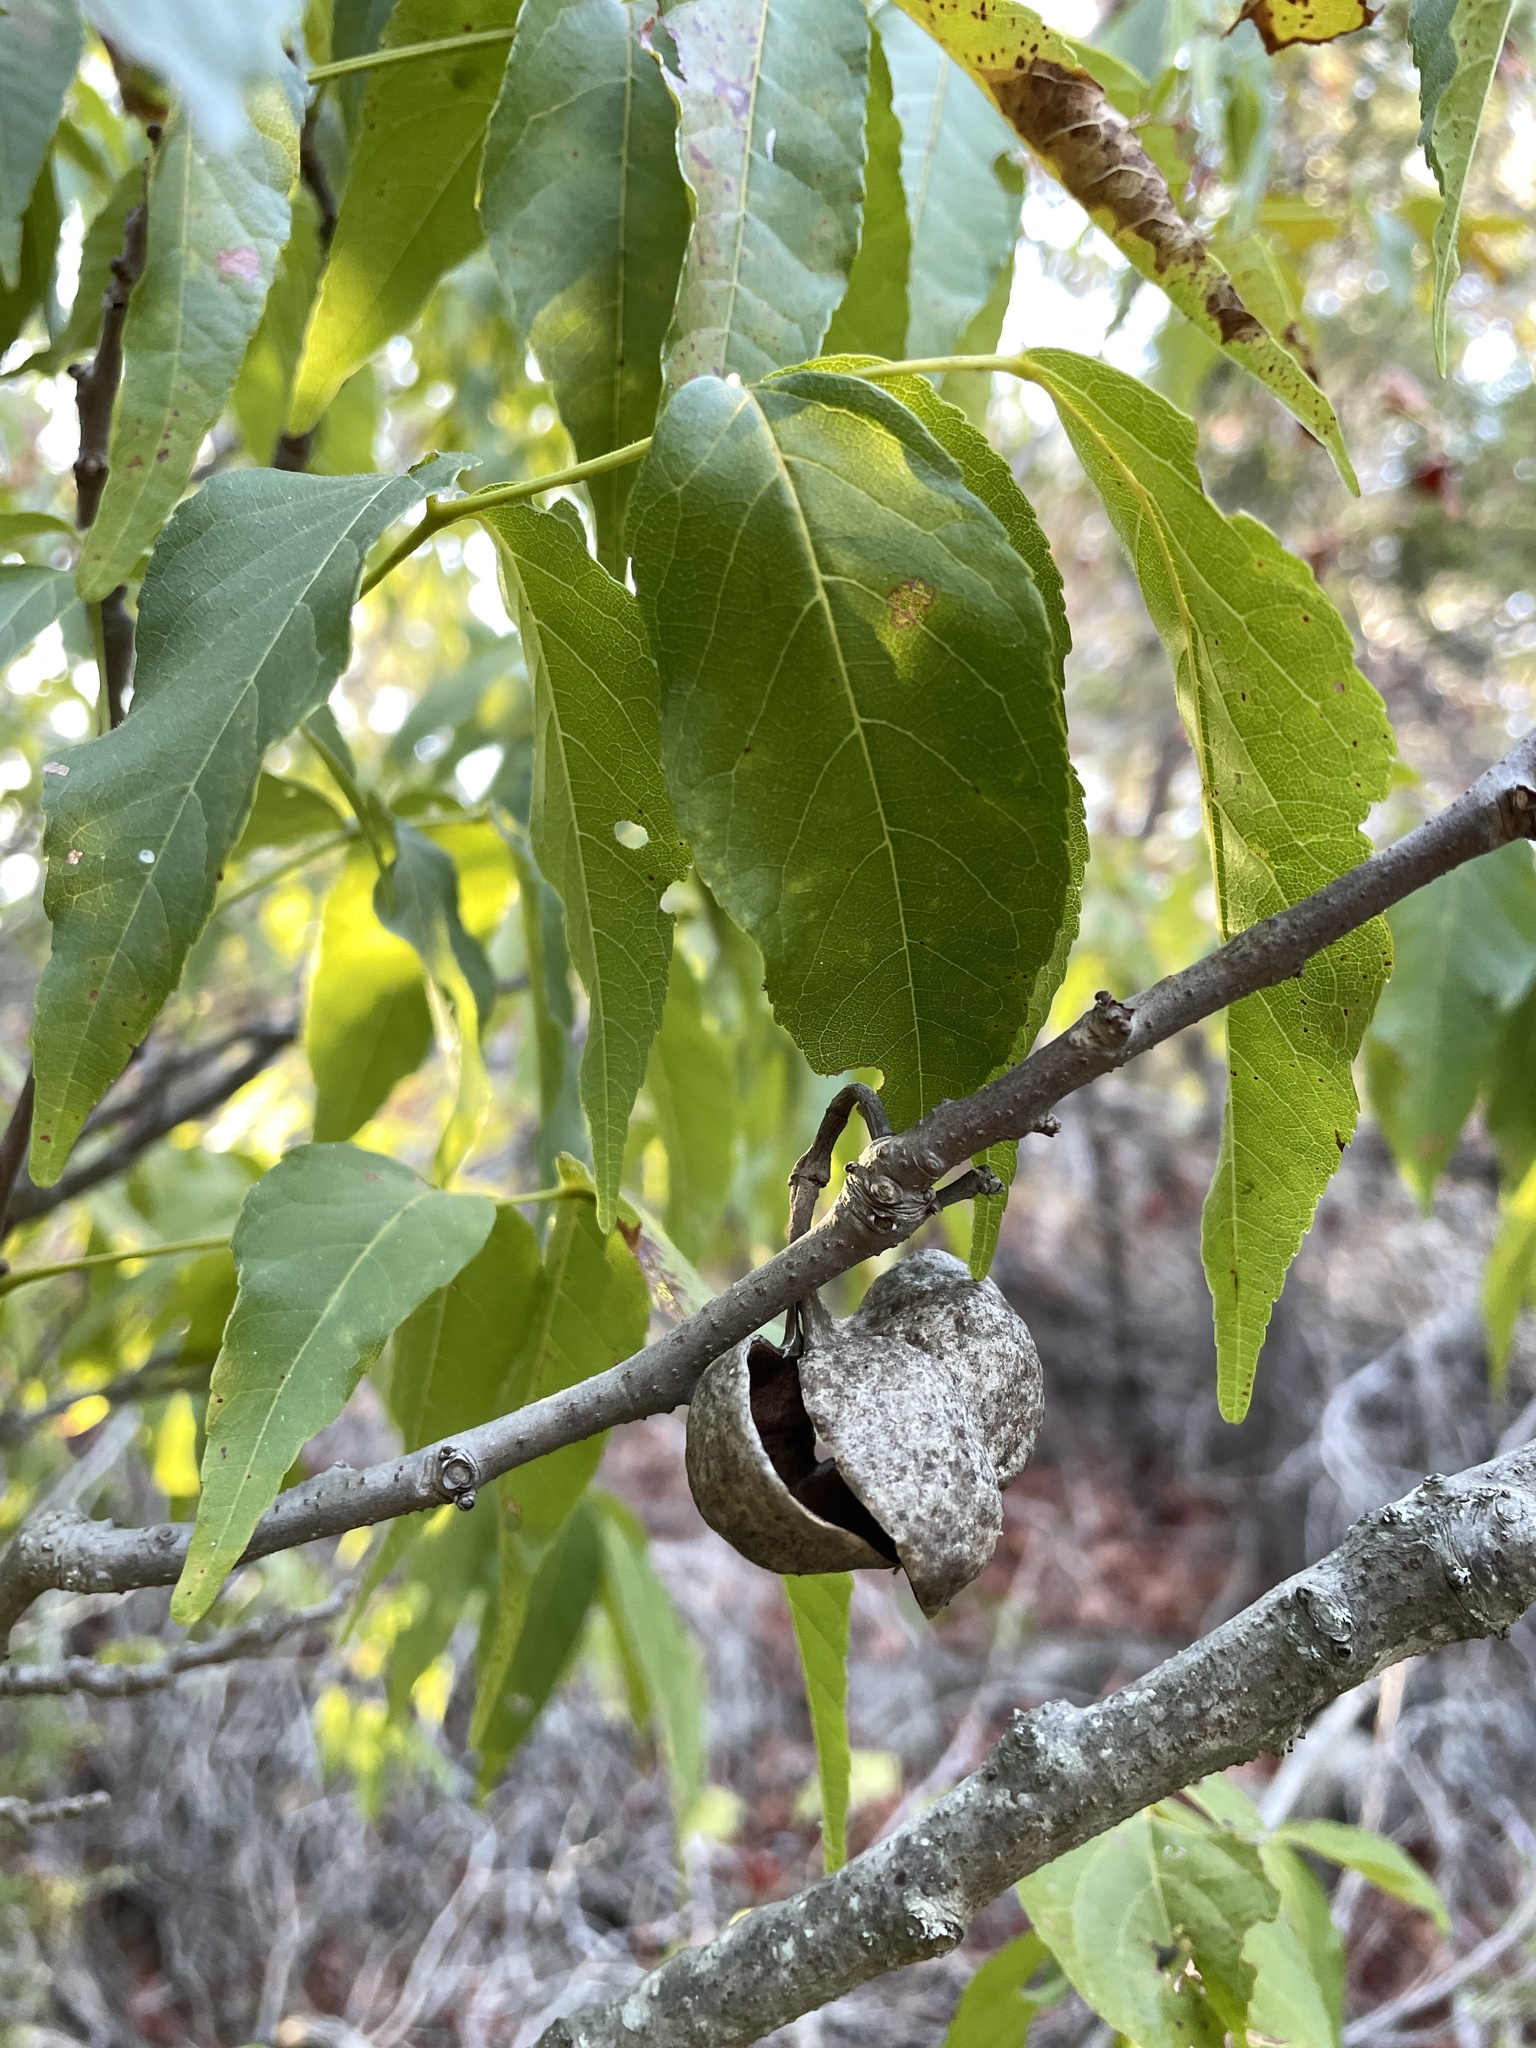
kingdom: Plantae
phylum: Tracheophyta
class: Magnoliopsida
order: Sapindales
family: Sapindaceae
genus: Ungnadia
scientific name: Ungnadia speciosa
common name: Texas-buckeye
